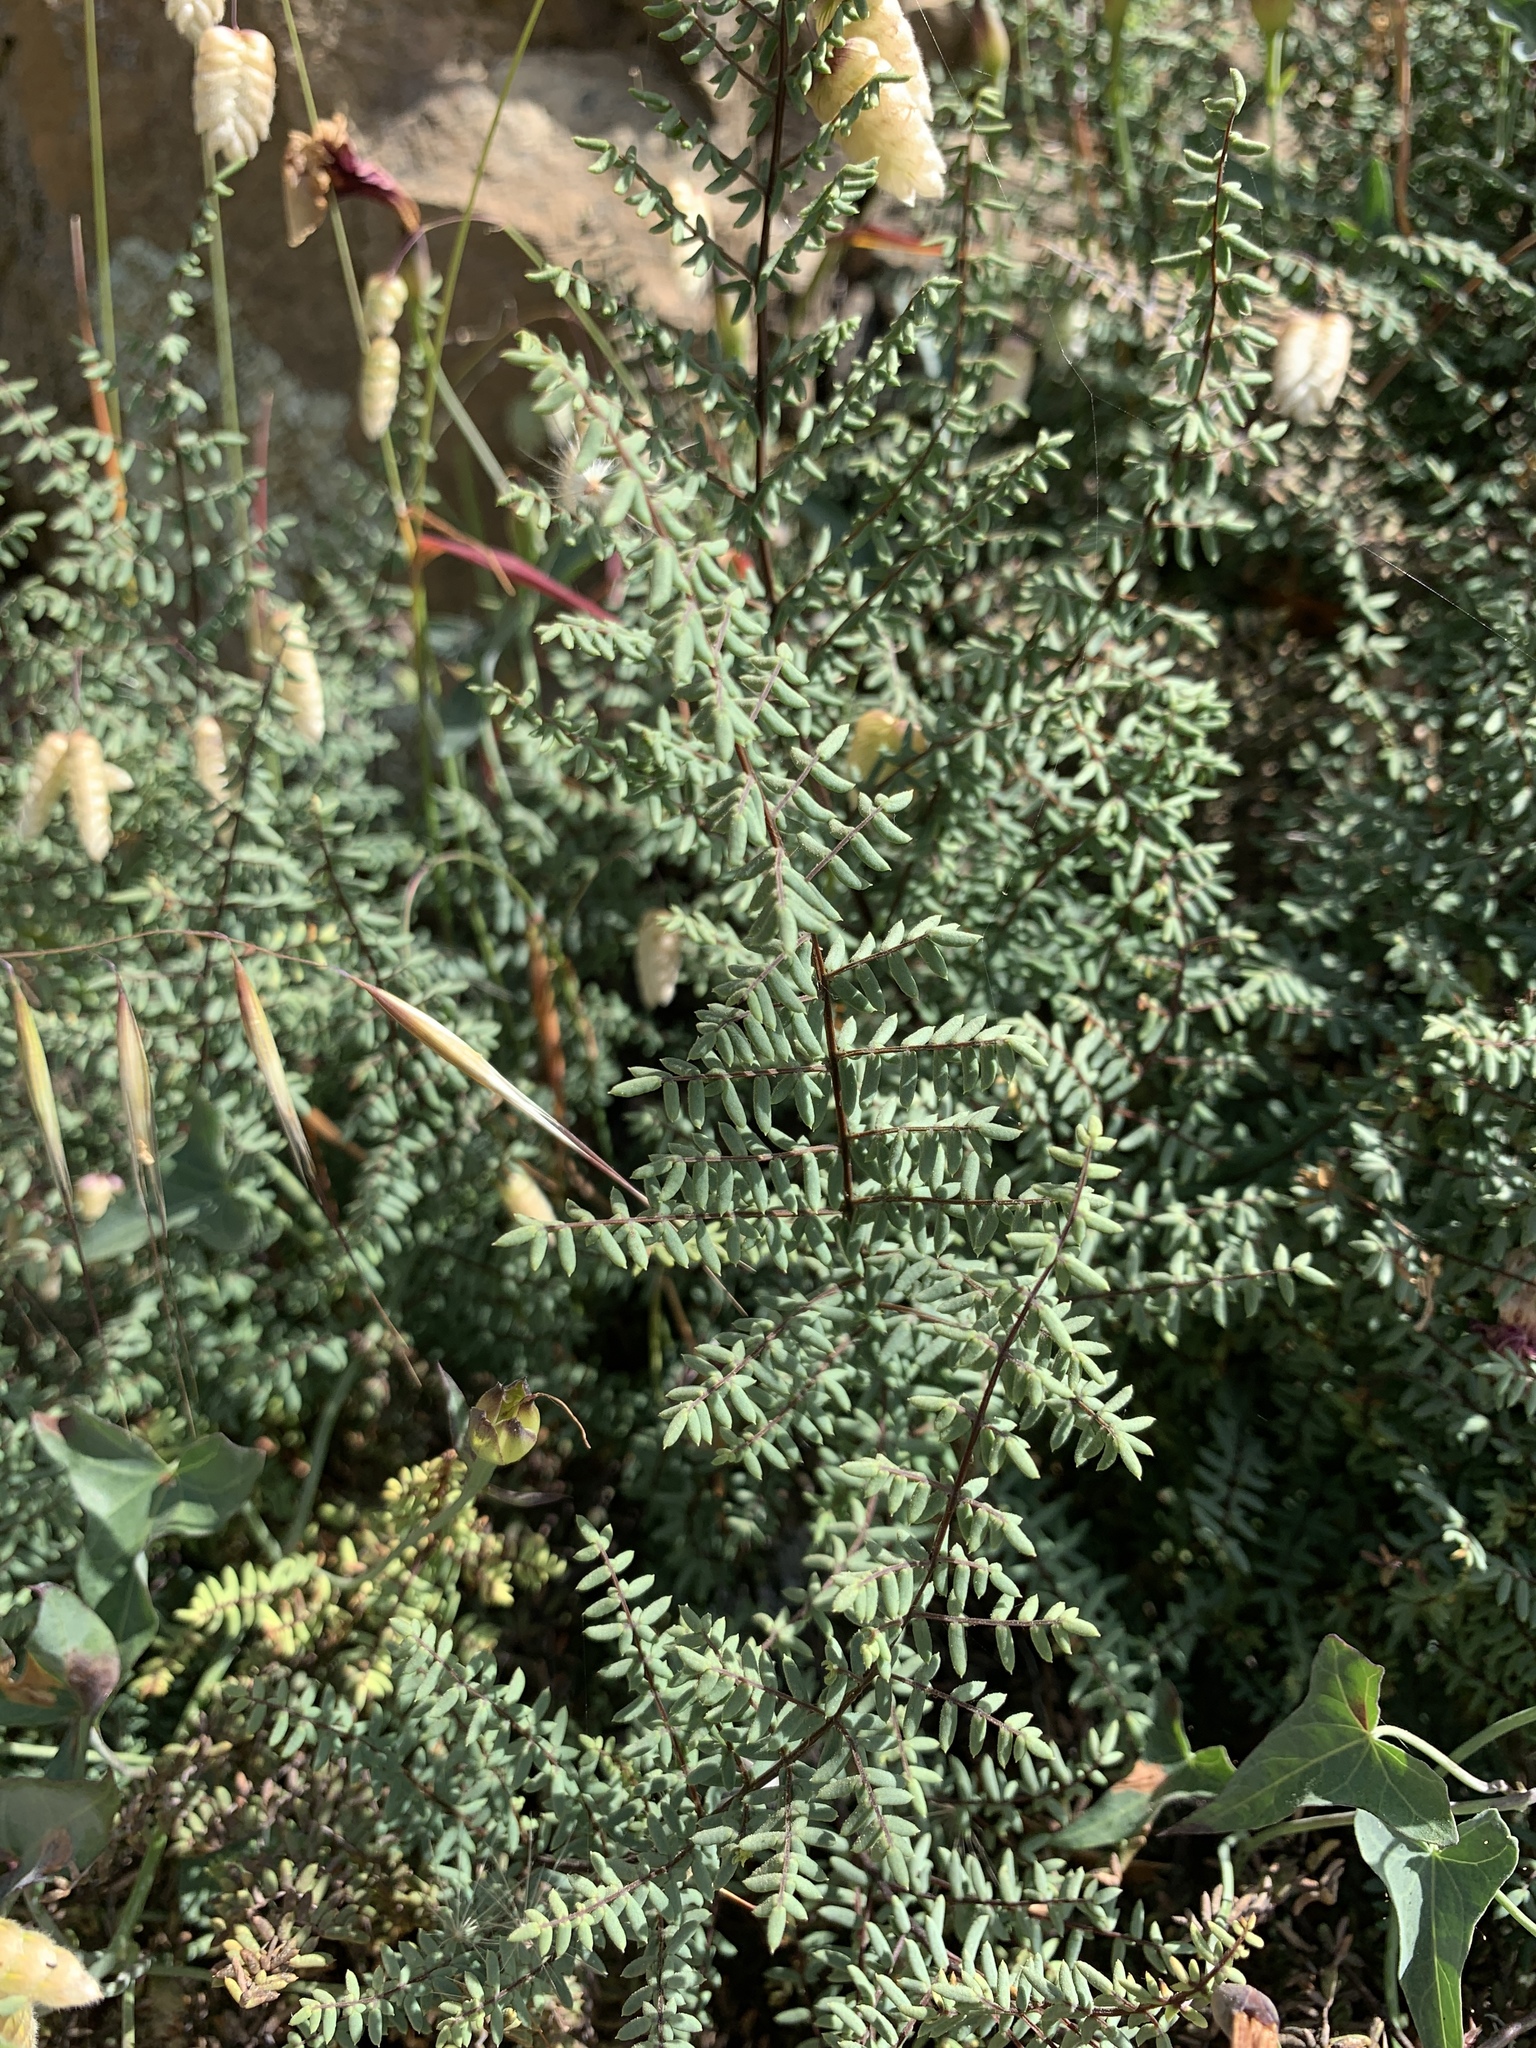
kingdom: Plantae
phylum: Tracheophyta
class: Polypodiopsida
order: Polypodiales
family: Pteridaceae
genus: Pellaea
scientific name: Pellaea mucronata
